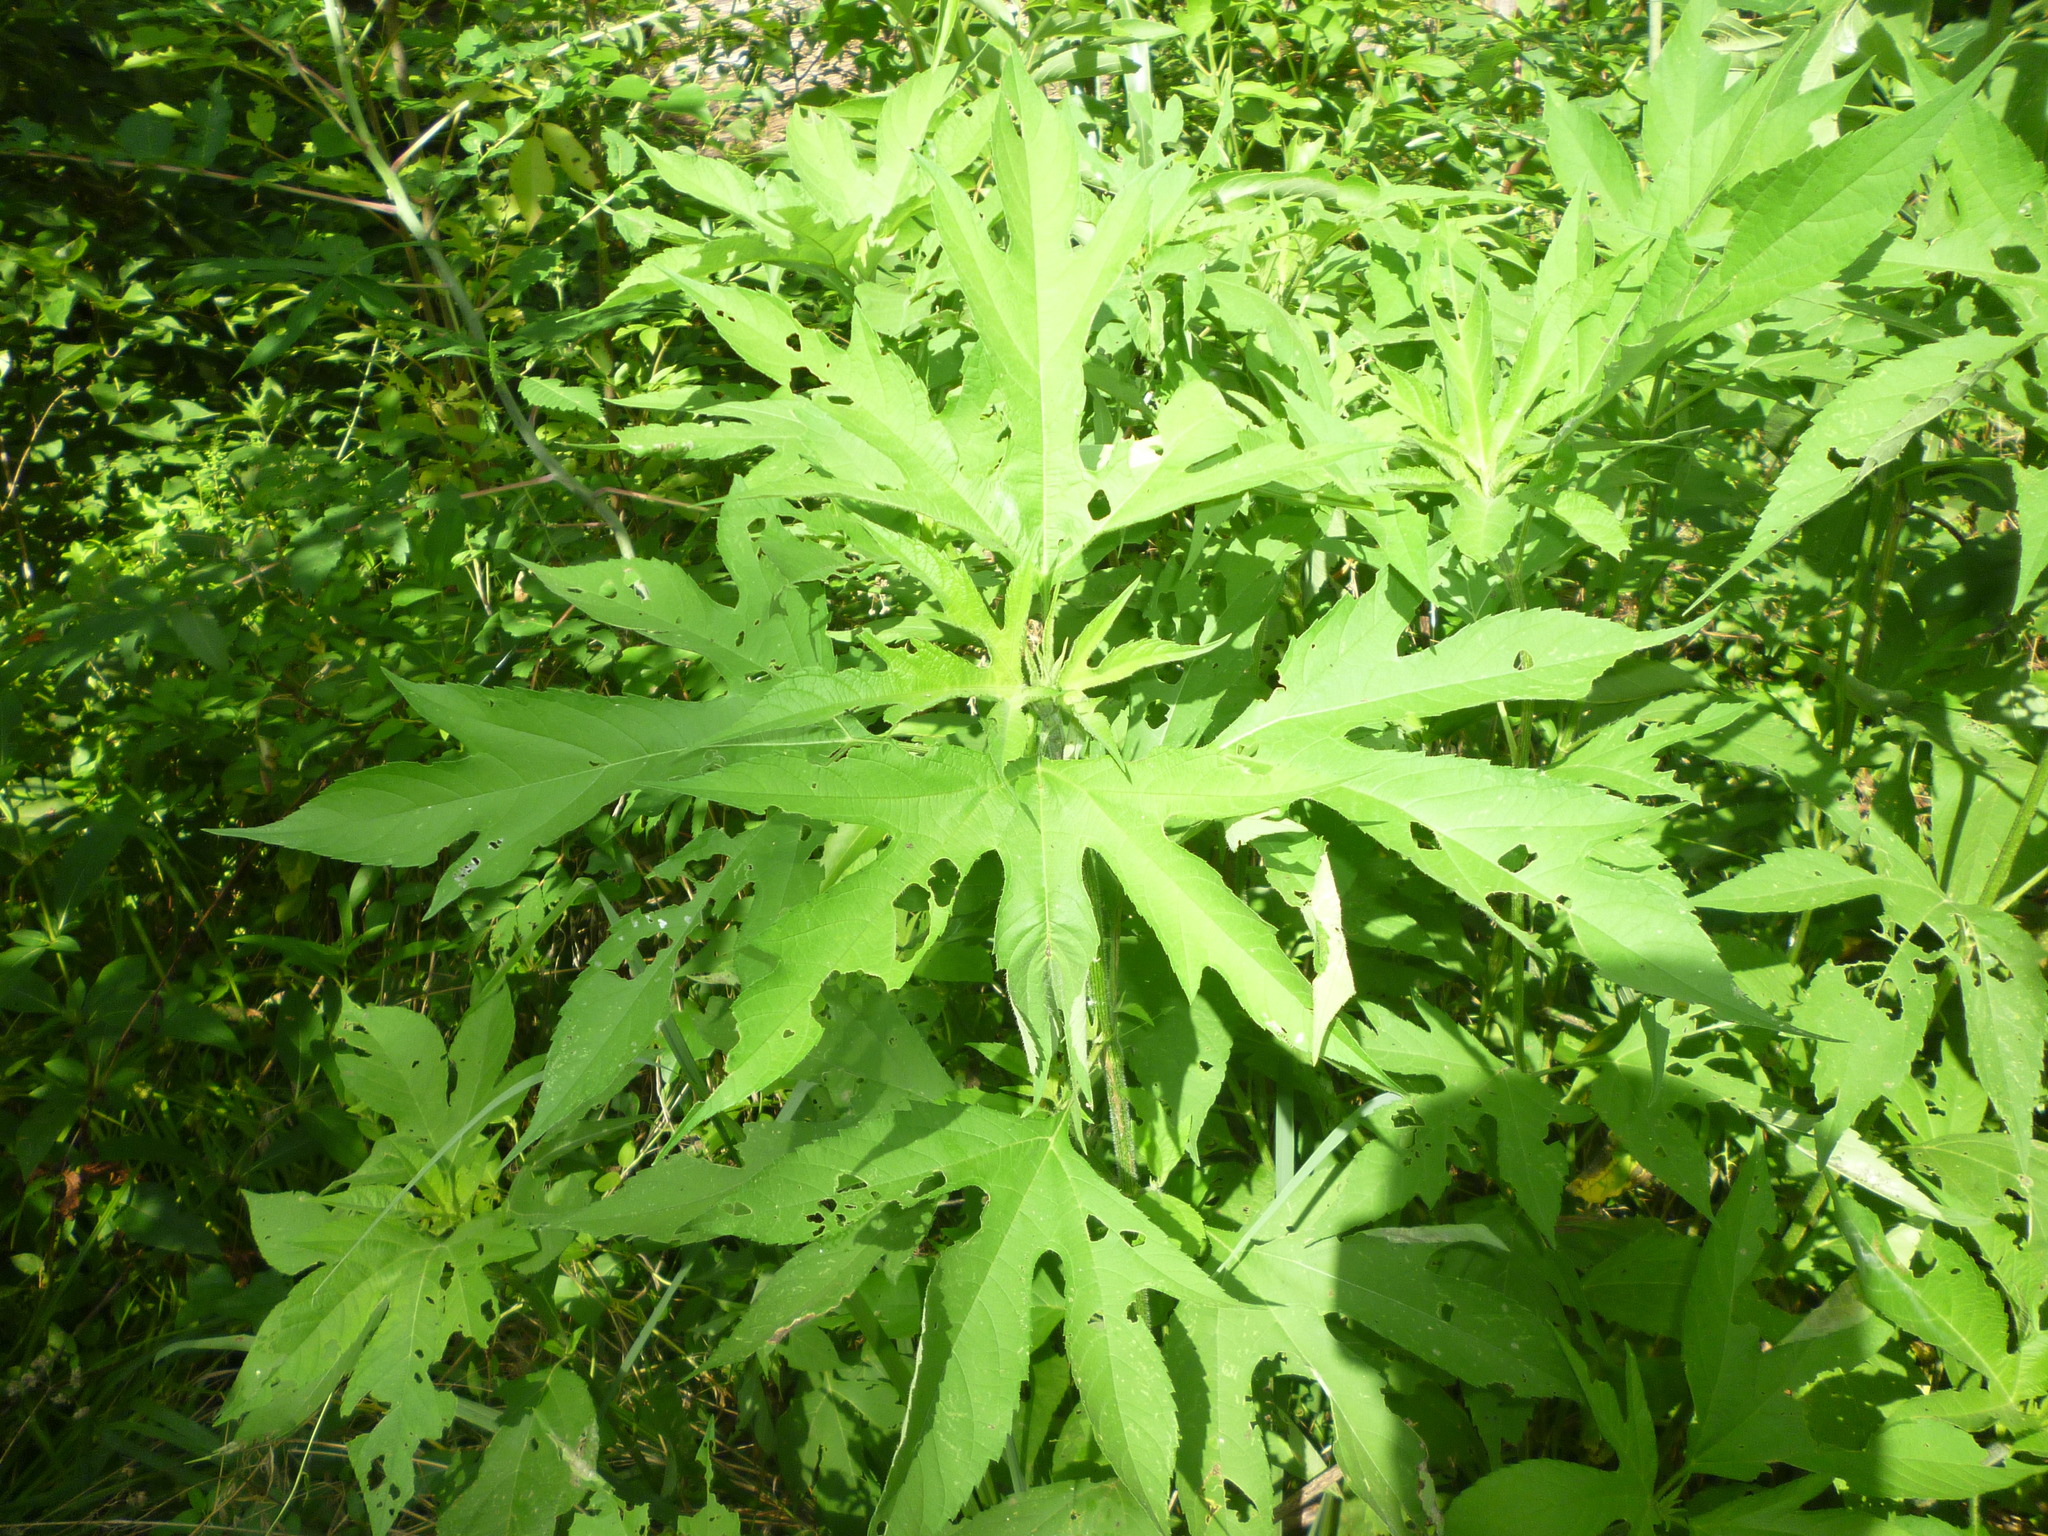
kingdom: Plantae
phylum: Tracheophyta
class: Magnoliopsida
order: Asterales
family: Asteraceae
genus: Ambrosia
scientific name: Ambrosia trifida
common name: Giant ragweed
